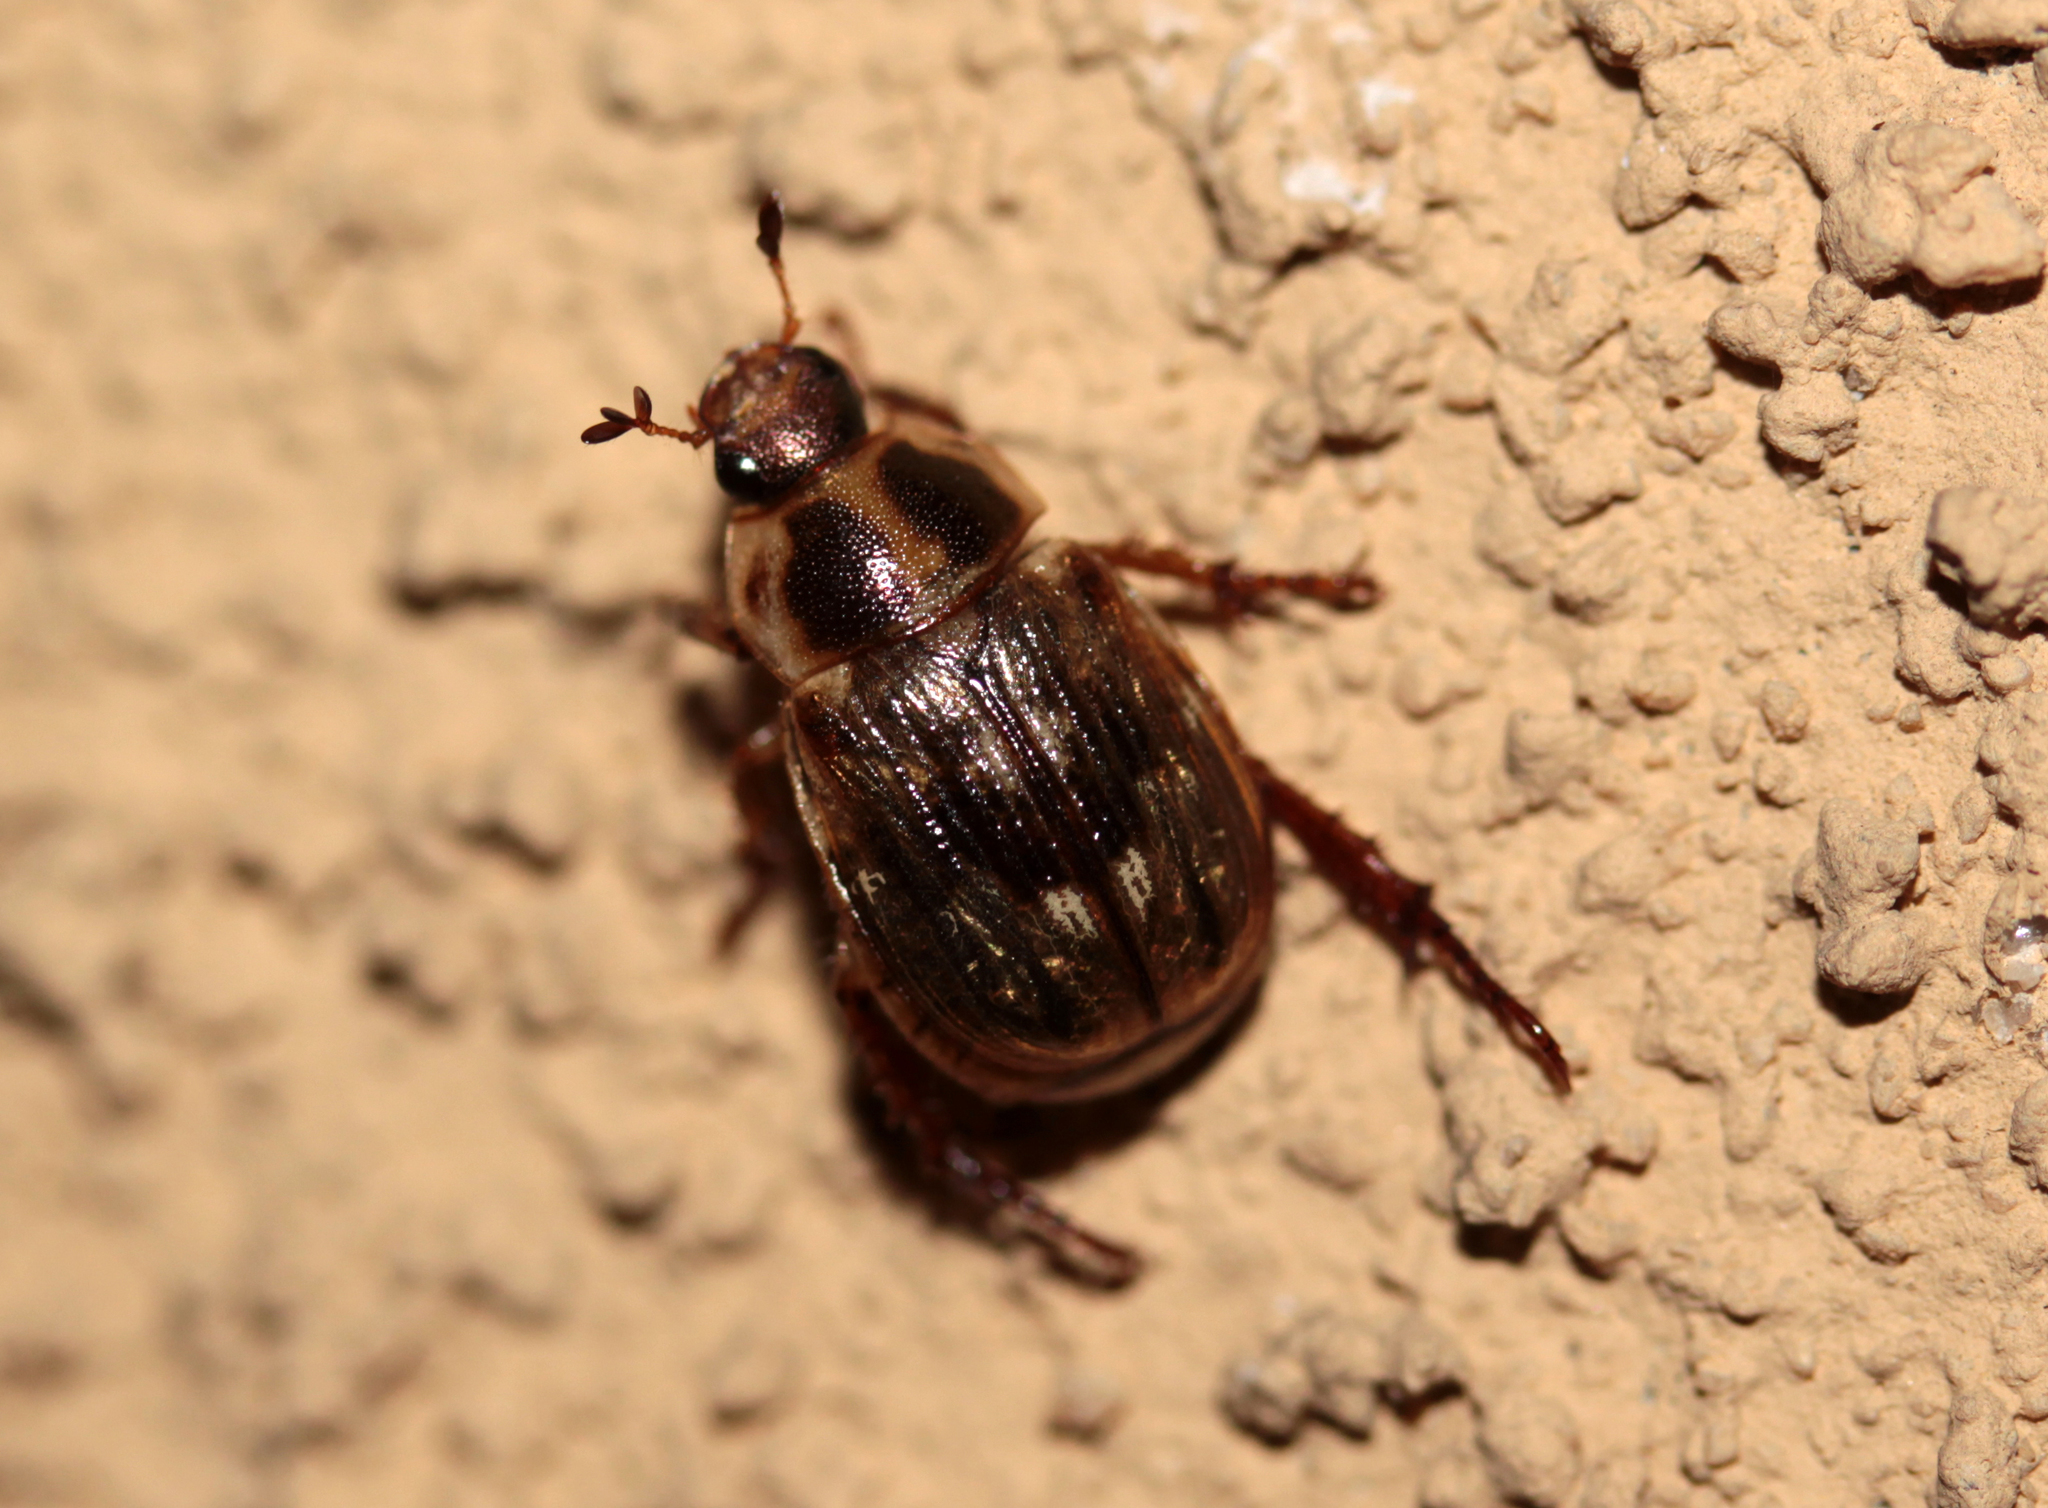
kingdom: Animalia
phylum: Arthropoda
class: Insecta
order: Coleoptera
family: Scarabaeidae
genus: Exomala
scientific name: Exomala orientalis
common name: Oriental beetle
